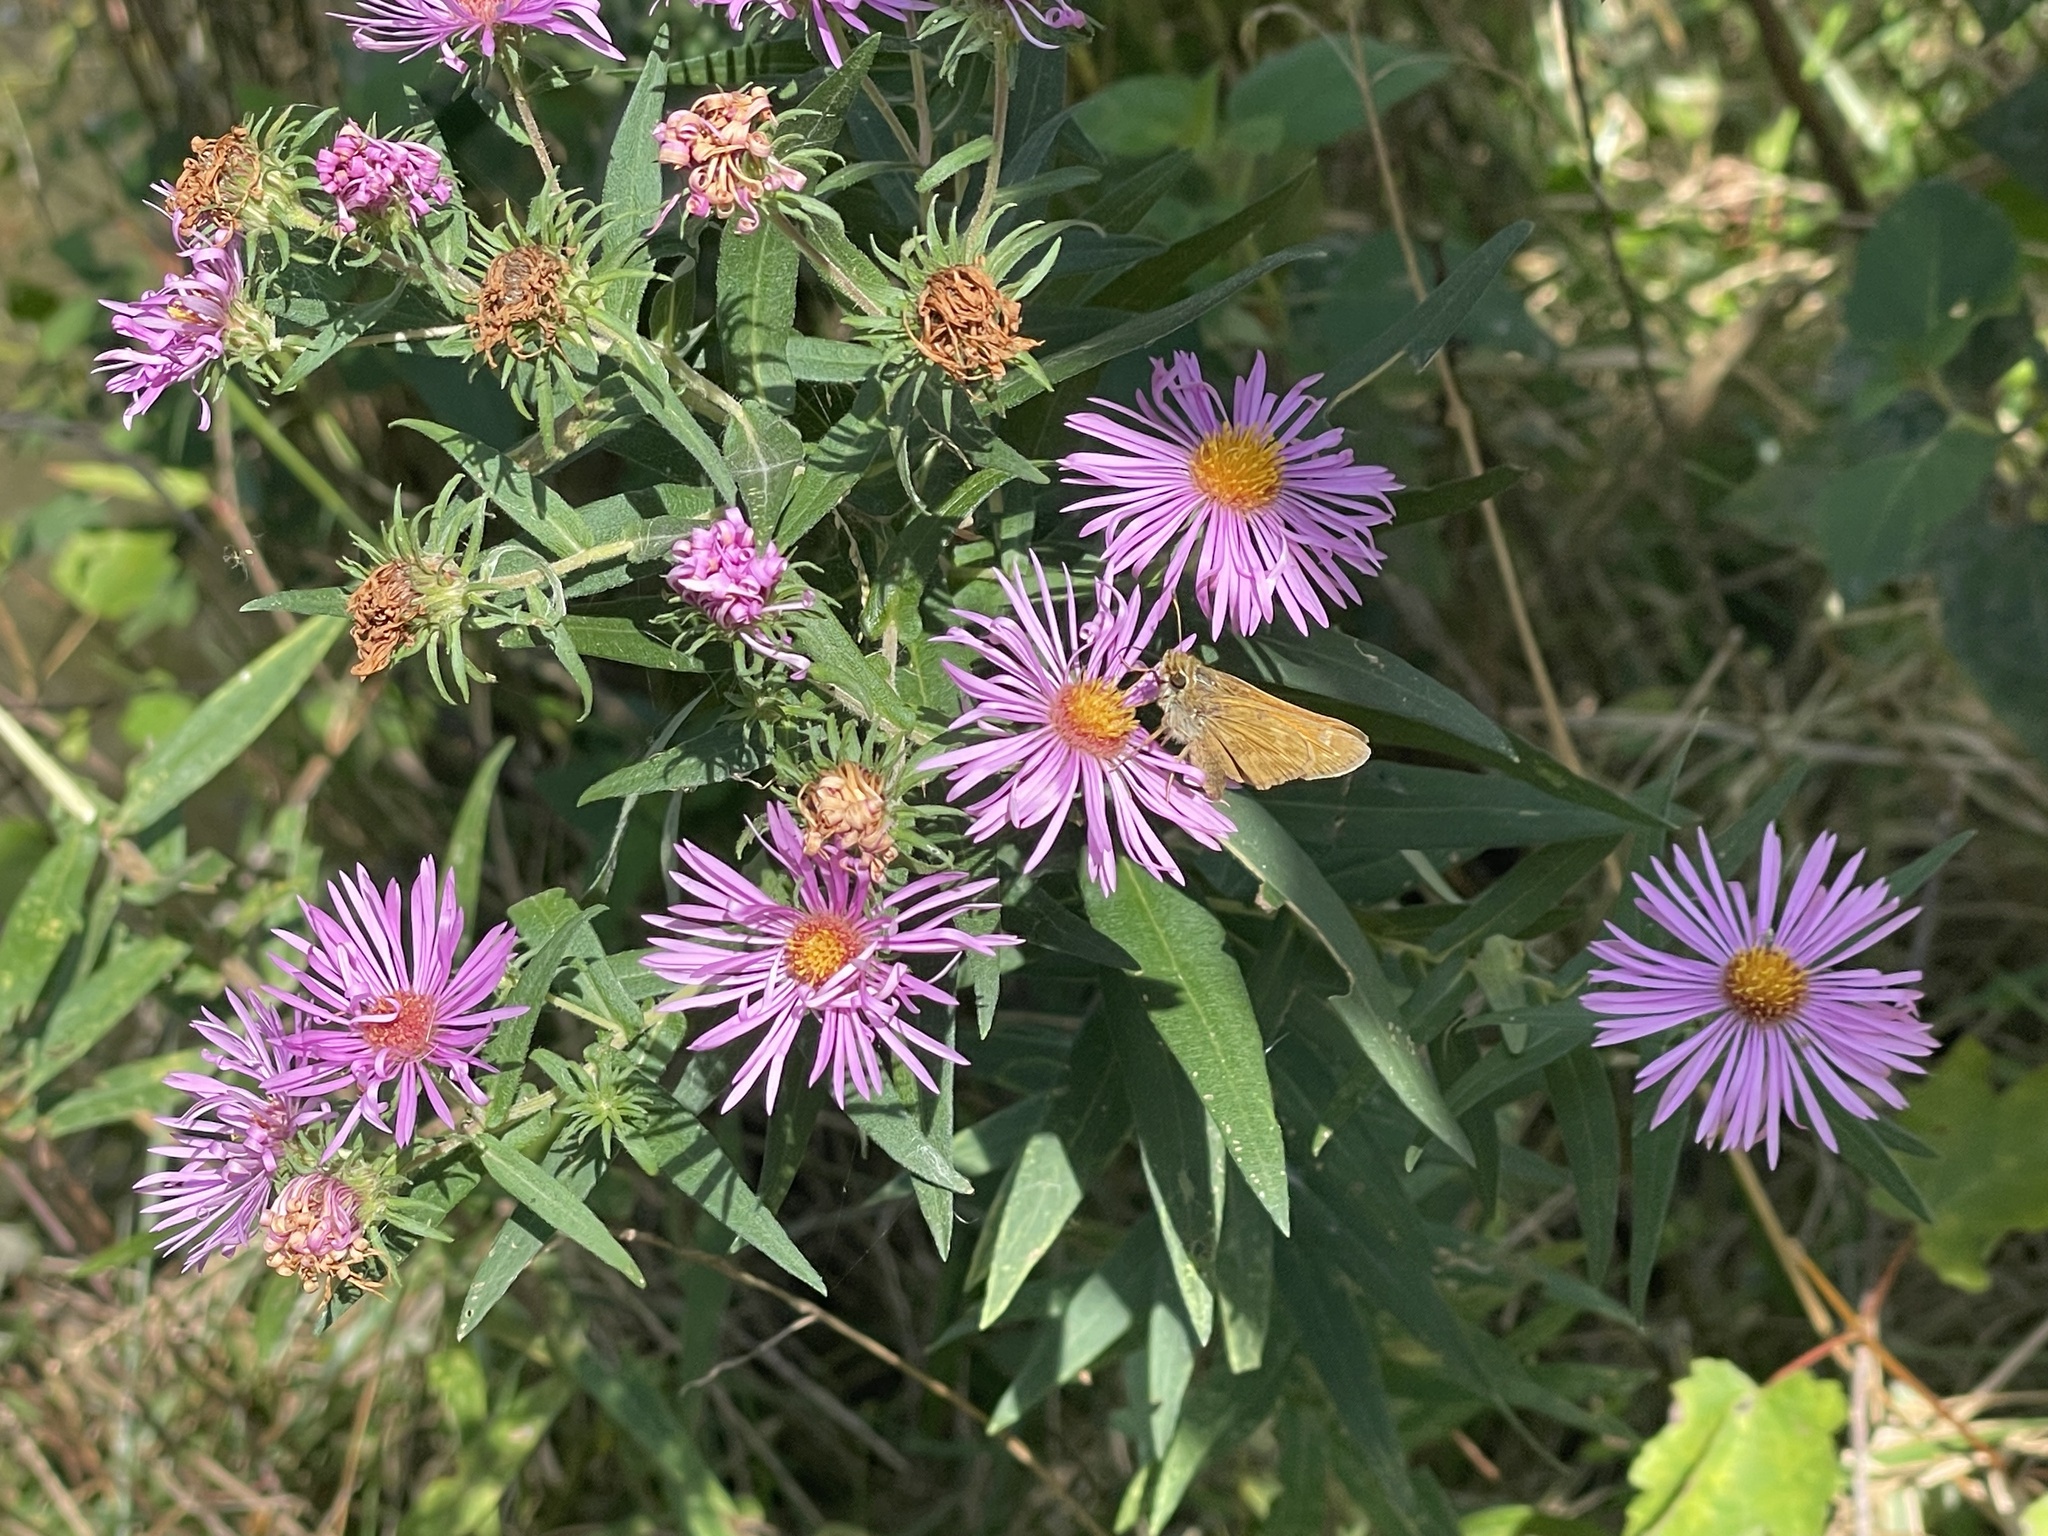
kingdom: Animalia
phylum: Arthropoda
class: Insecta
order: Lepidoptera
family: Hesperiidae
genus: Atalopedes
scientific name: Atalopedes
